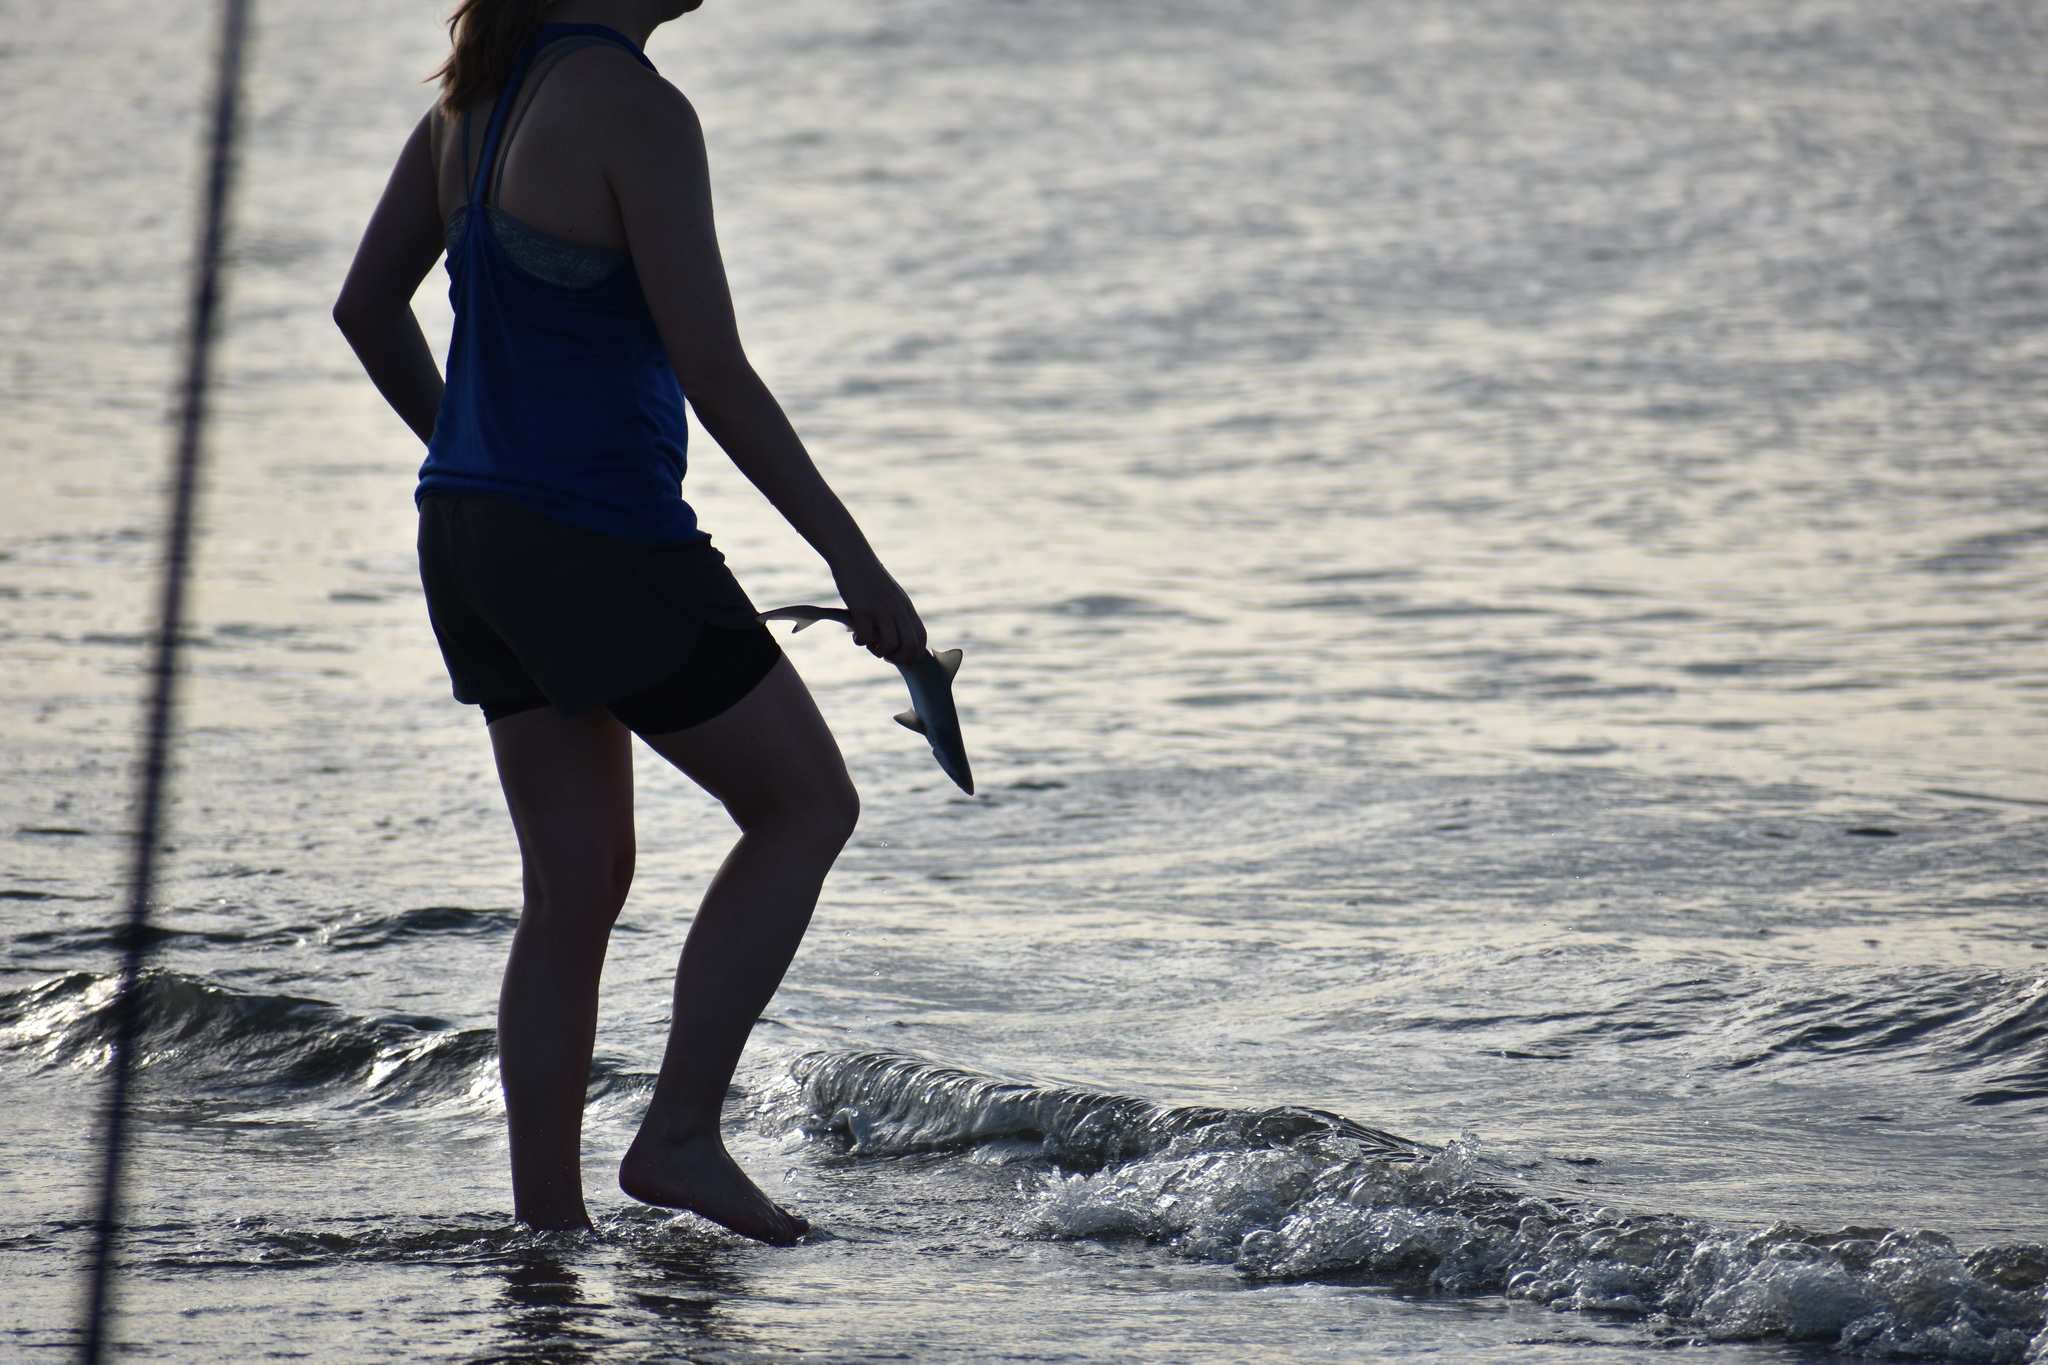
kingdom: Animalia
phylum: Chordata
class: Elasmobranchii
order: Carcharhiniformes
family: Carcharhinidae
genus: Rhizoprionodon
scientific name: Rhizoprionodon terraenovae
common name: Atlantic sharpnose shark
